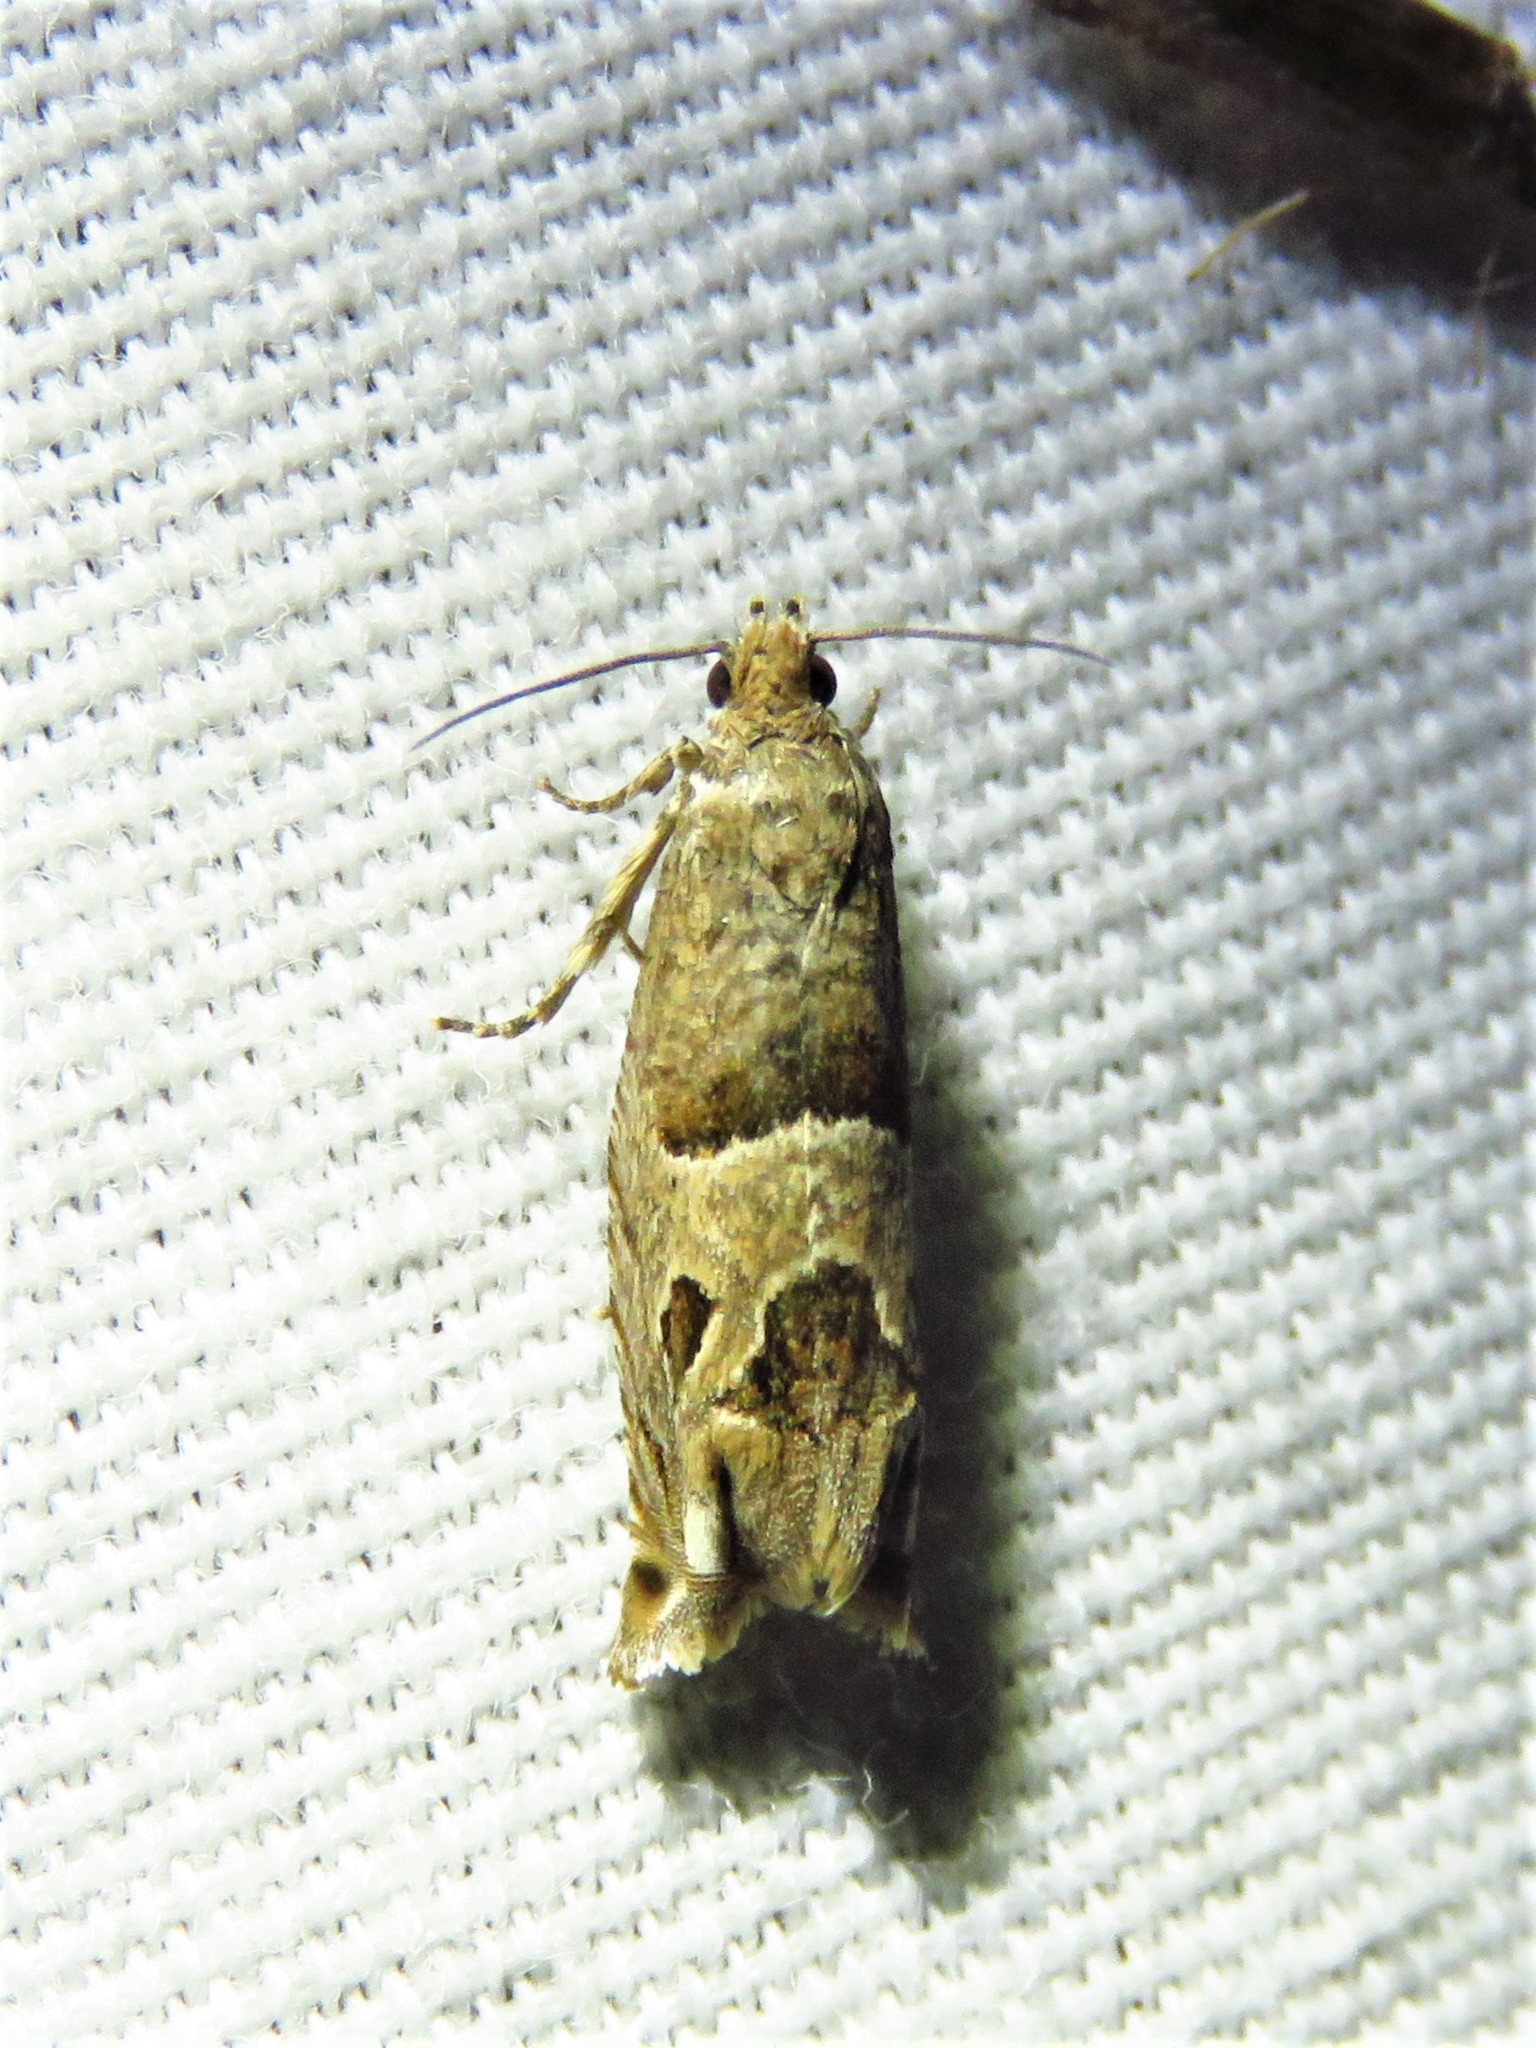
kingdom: Animalia
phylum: Arthropoda
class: Insecta
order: Lepidoptera
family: Tortricidae
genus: Sonia
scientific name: Sonia constrictana
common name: Constricted sonia moth
